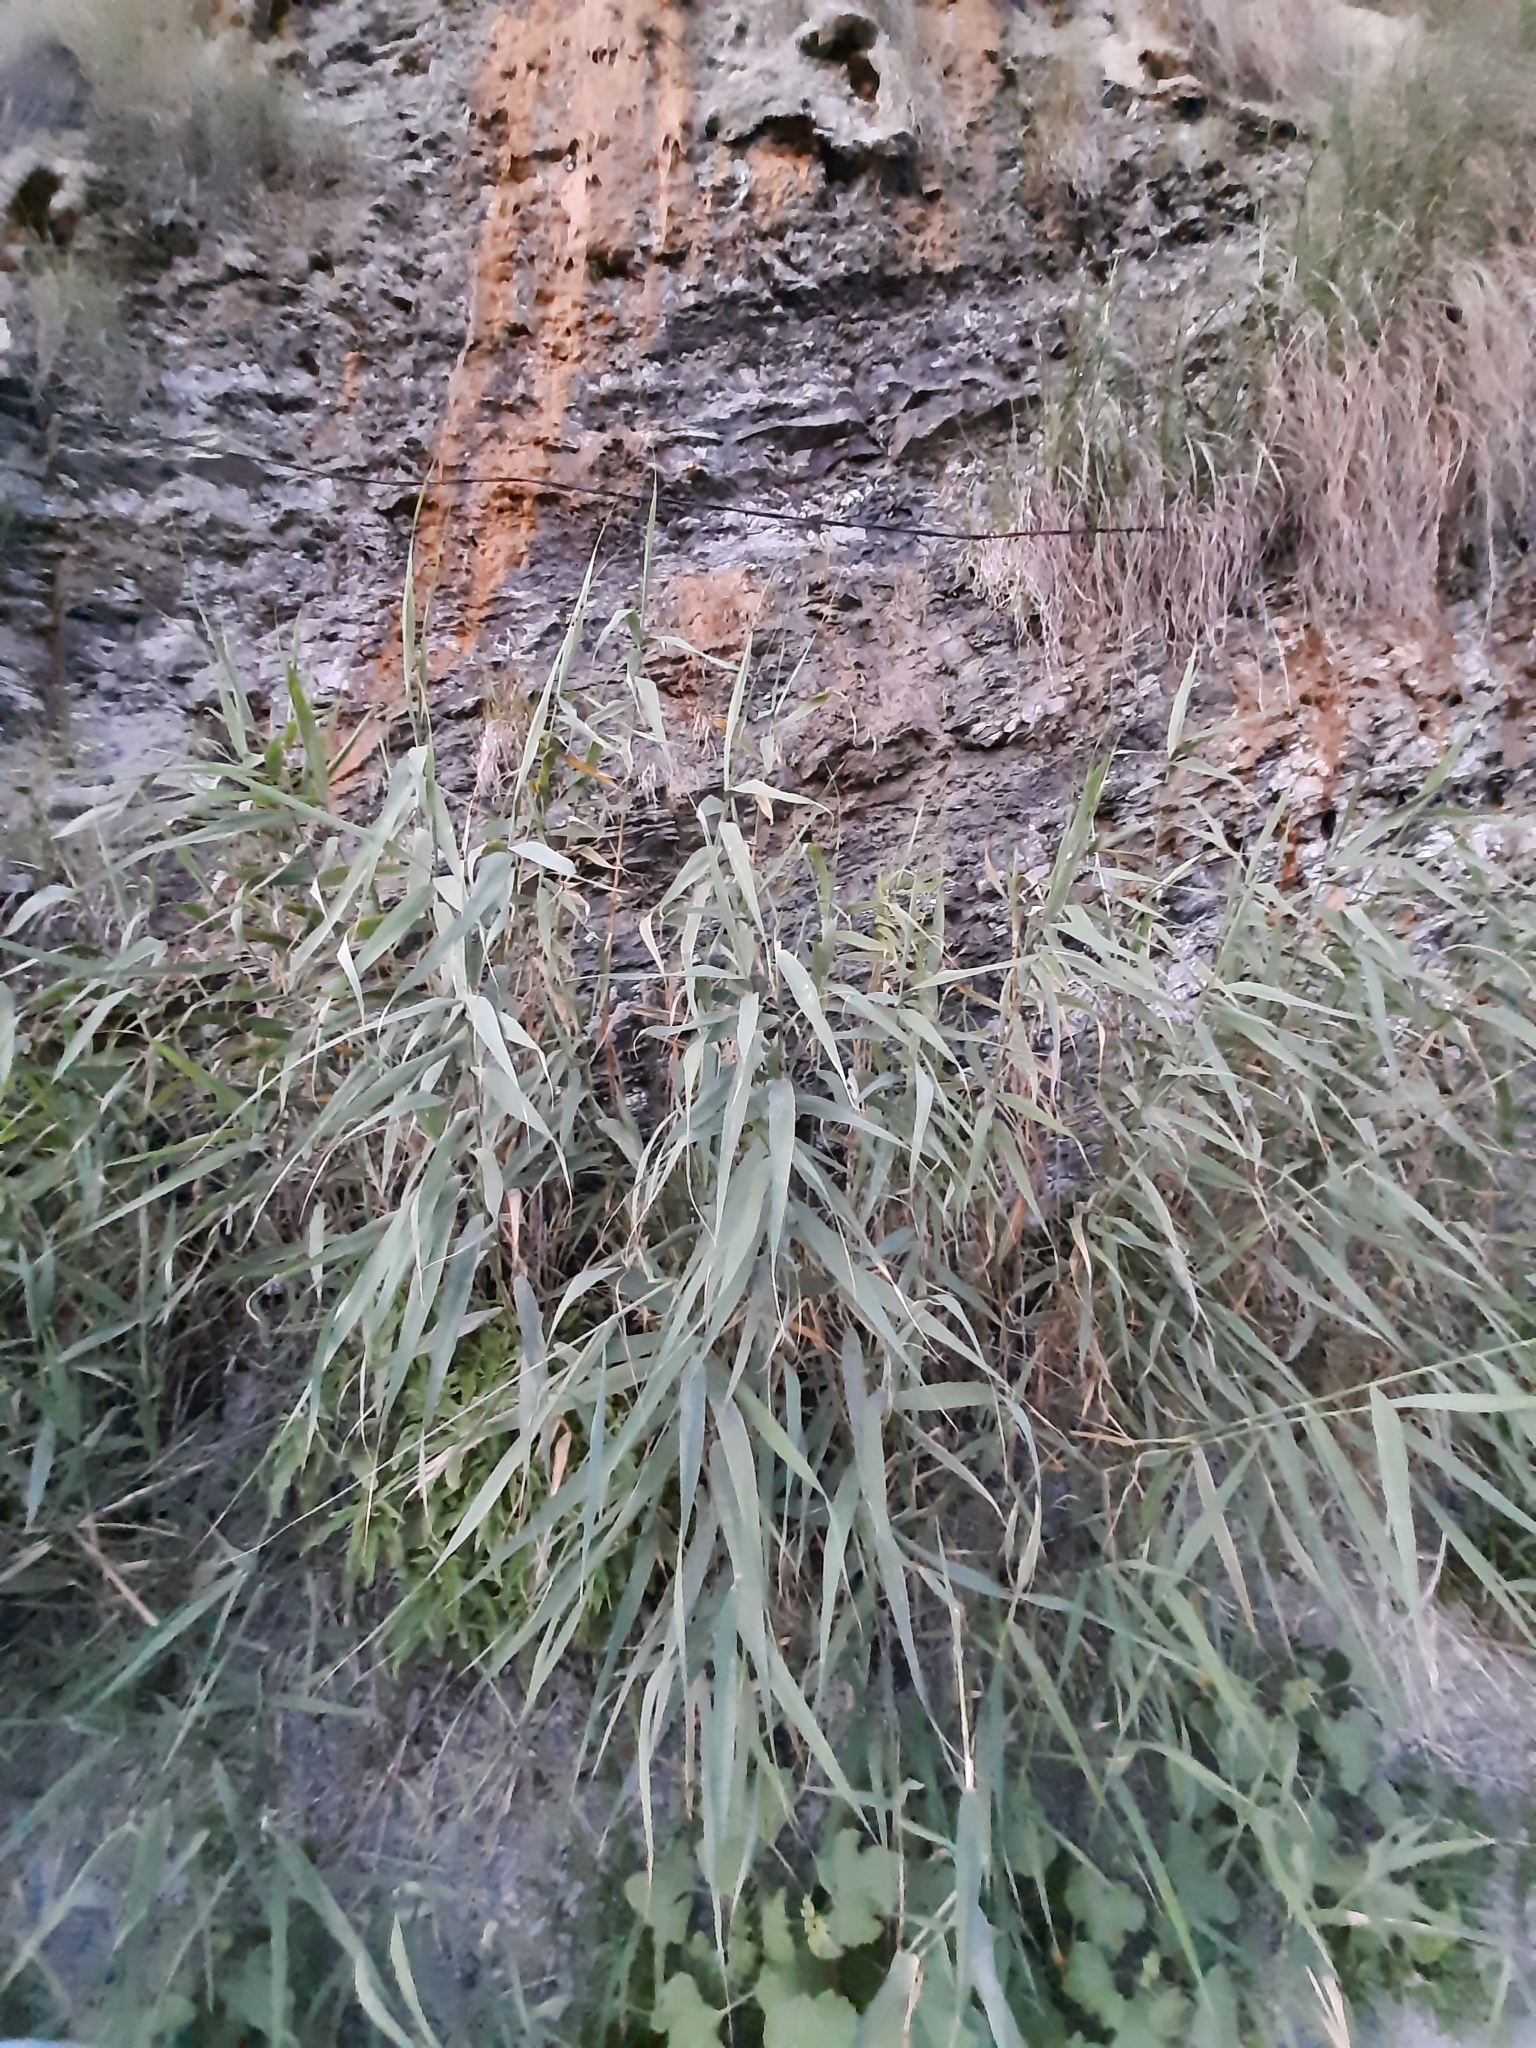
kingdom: Plantae
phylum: Tracheophyta
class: Liliopsida
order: Poales
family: Poaceae
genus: Phragmites
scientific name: Phragmites australis
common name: Common reed
